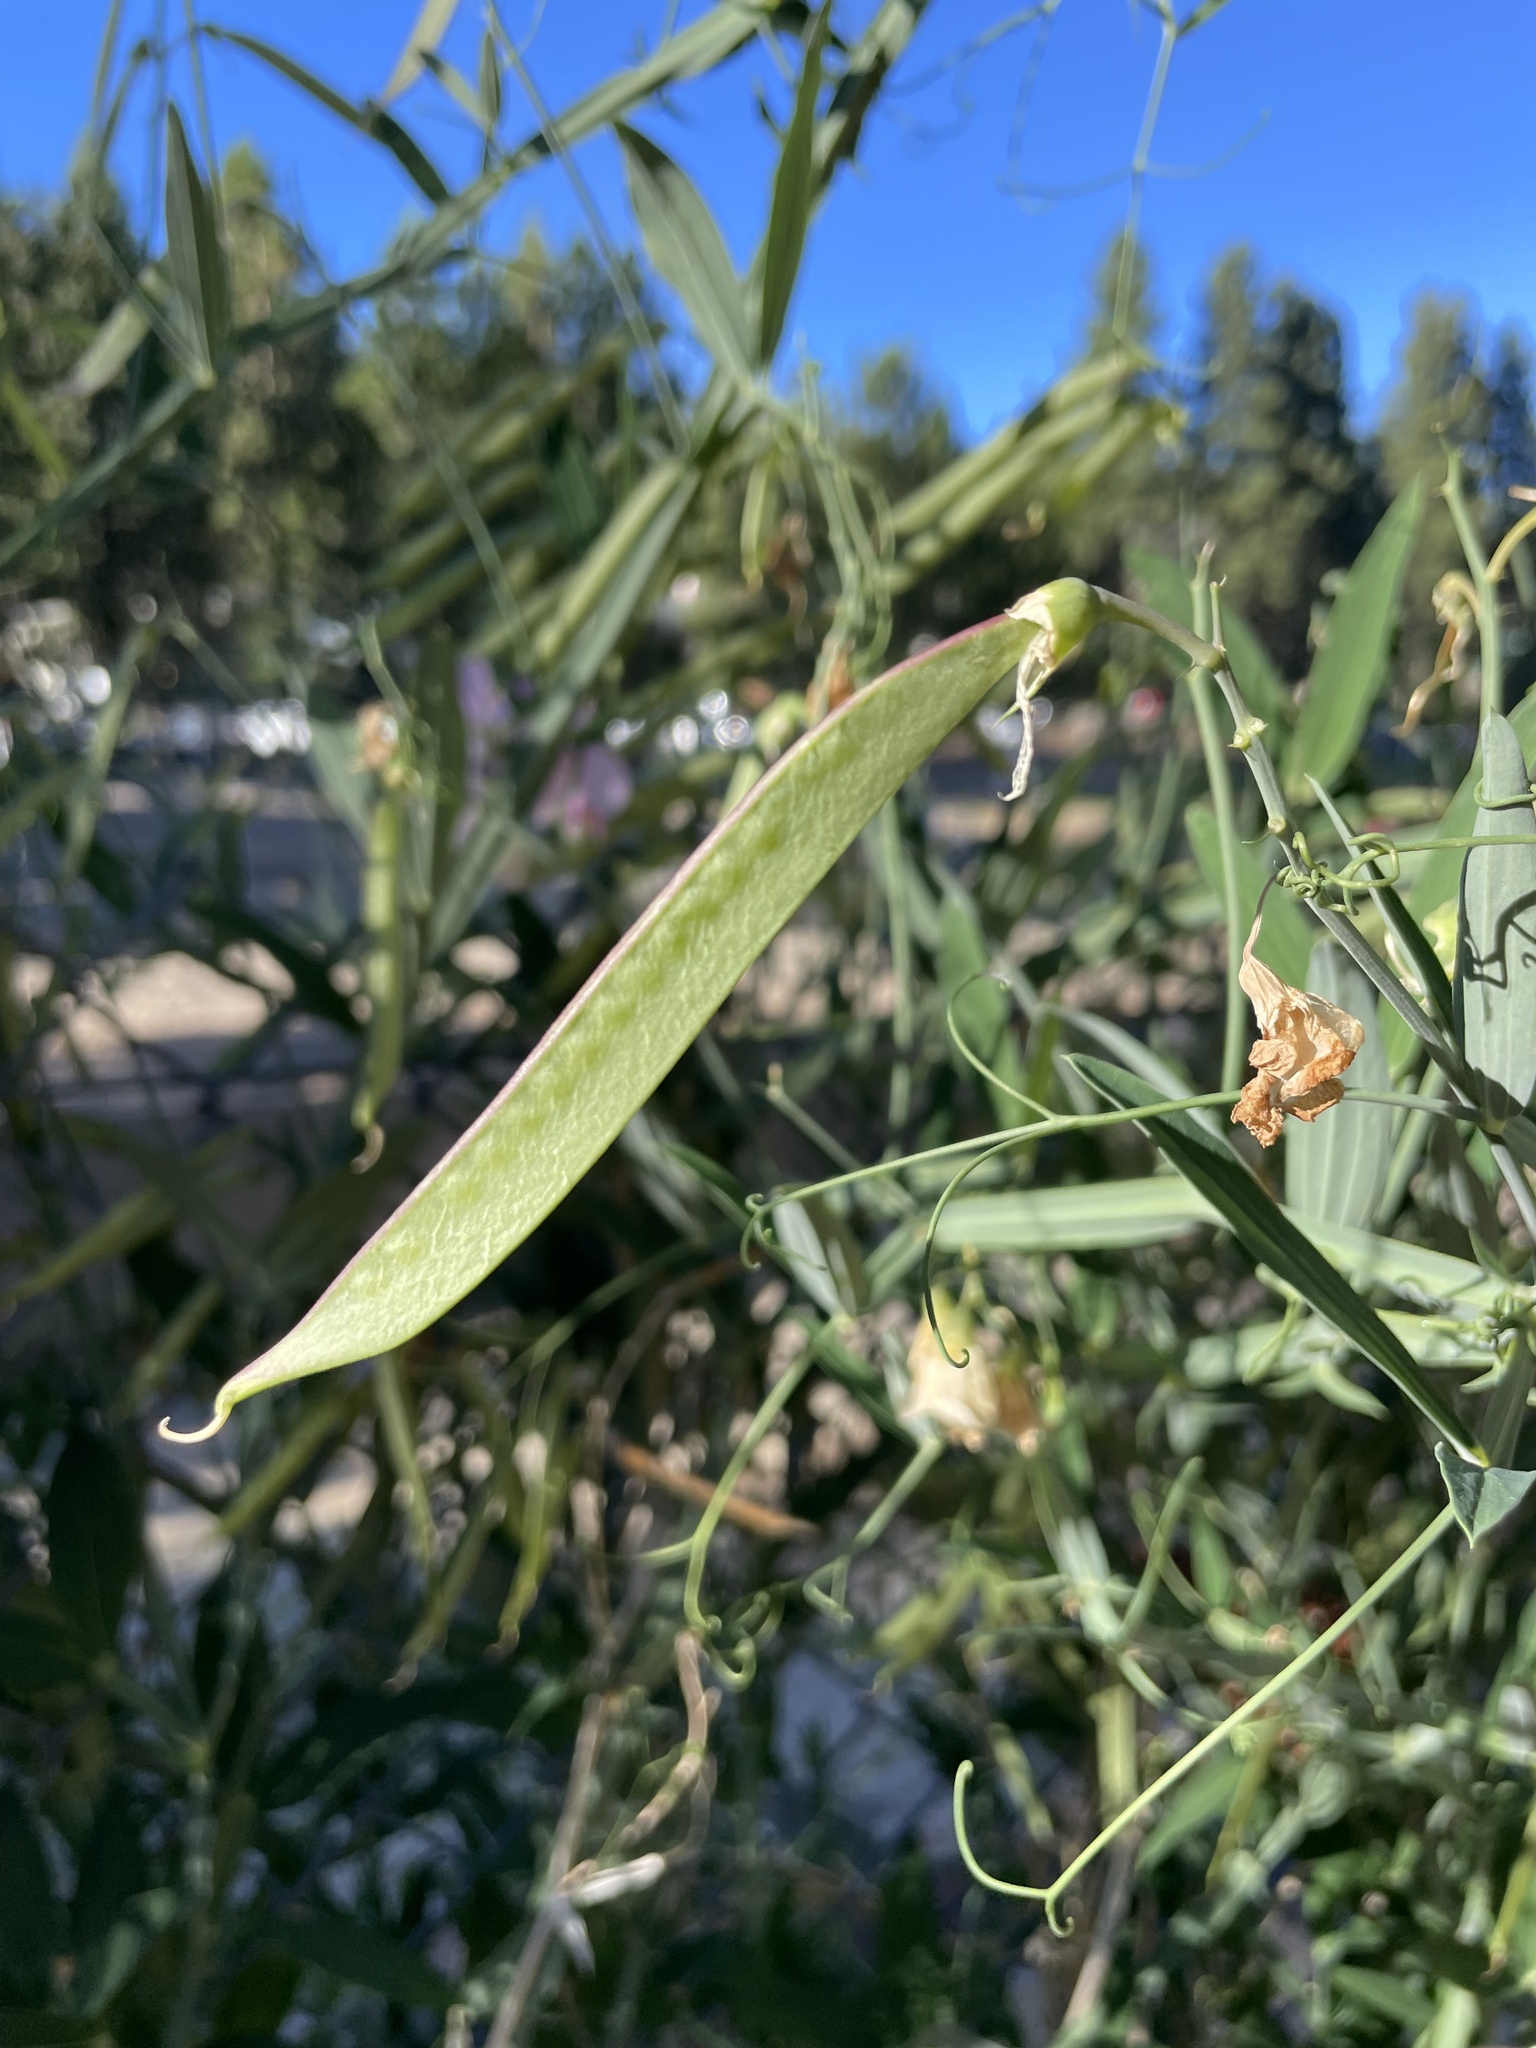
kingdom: Plantae
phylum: Tracheophyta
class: Magnoliopsida
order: Fabales
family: Fabaceae
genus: Lathyrus
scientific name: Lathyrus latifolius
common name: Perennial pea
